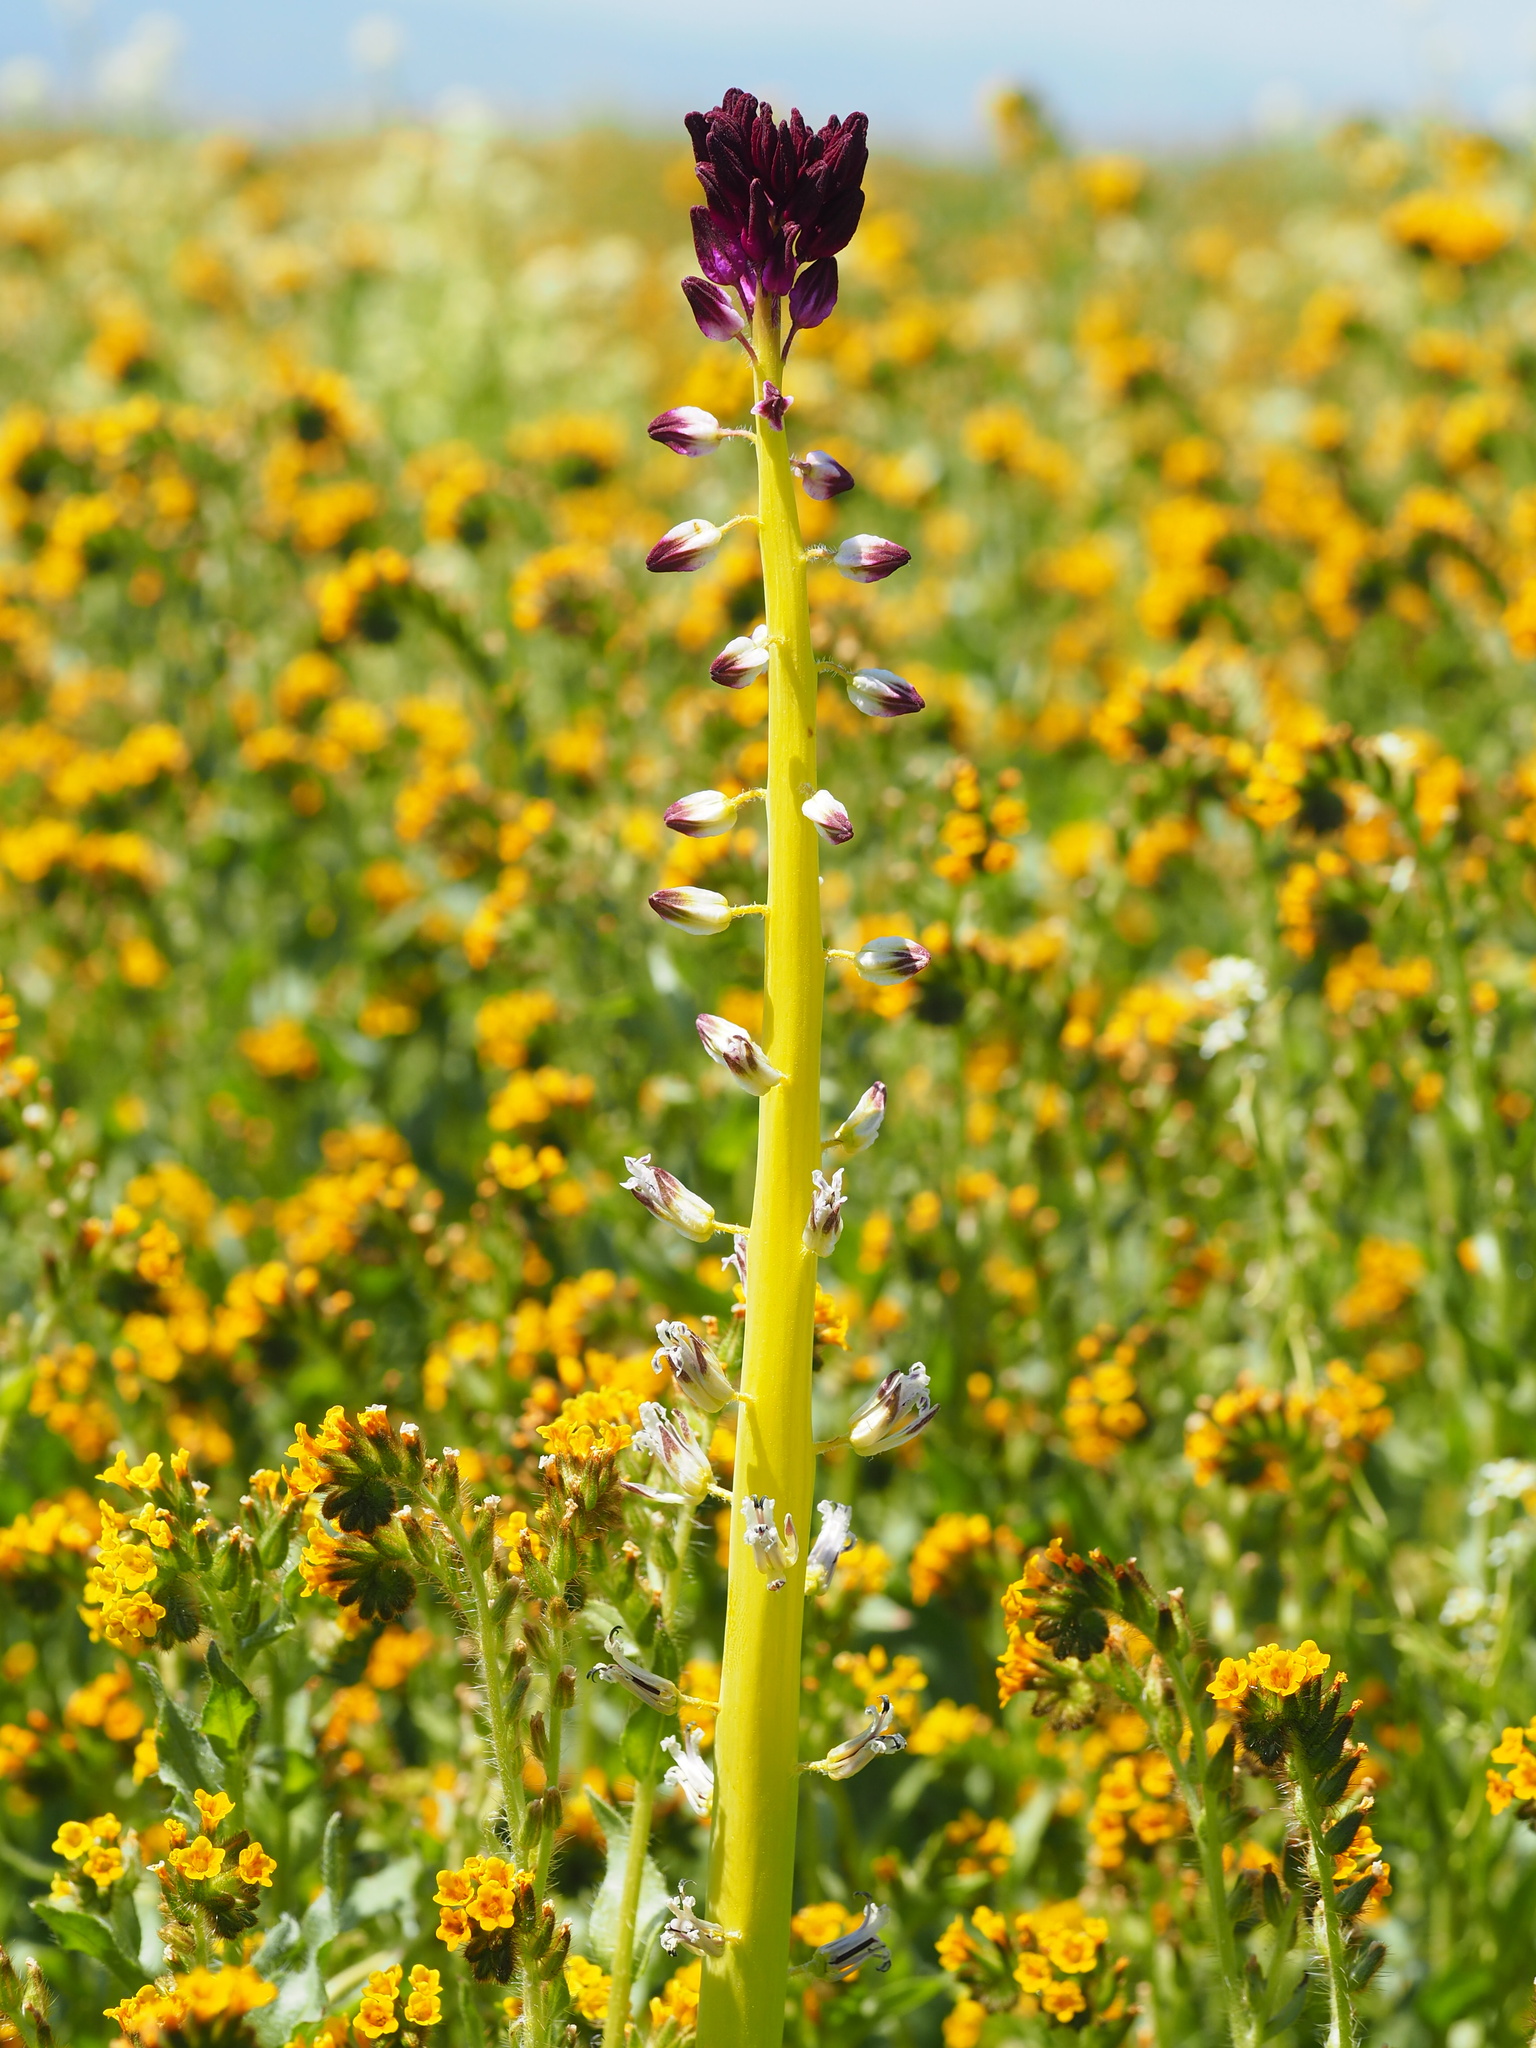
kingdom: Plantae
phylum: Tracheophyta
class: Magnoliopsida
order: Brassicales
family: Brassicaceae
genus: Streptanthus
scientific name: Streptanthus inflatus
